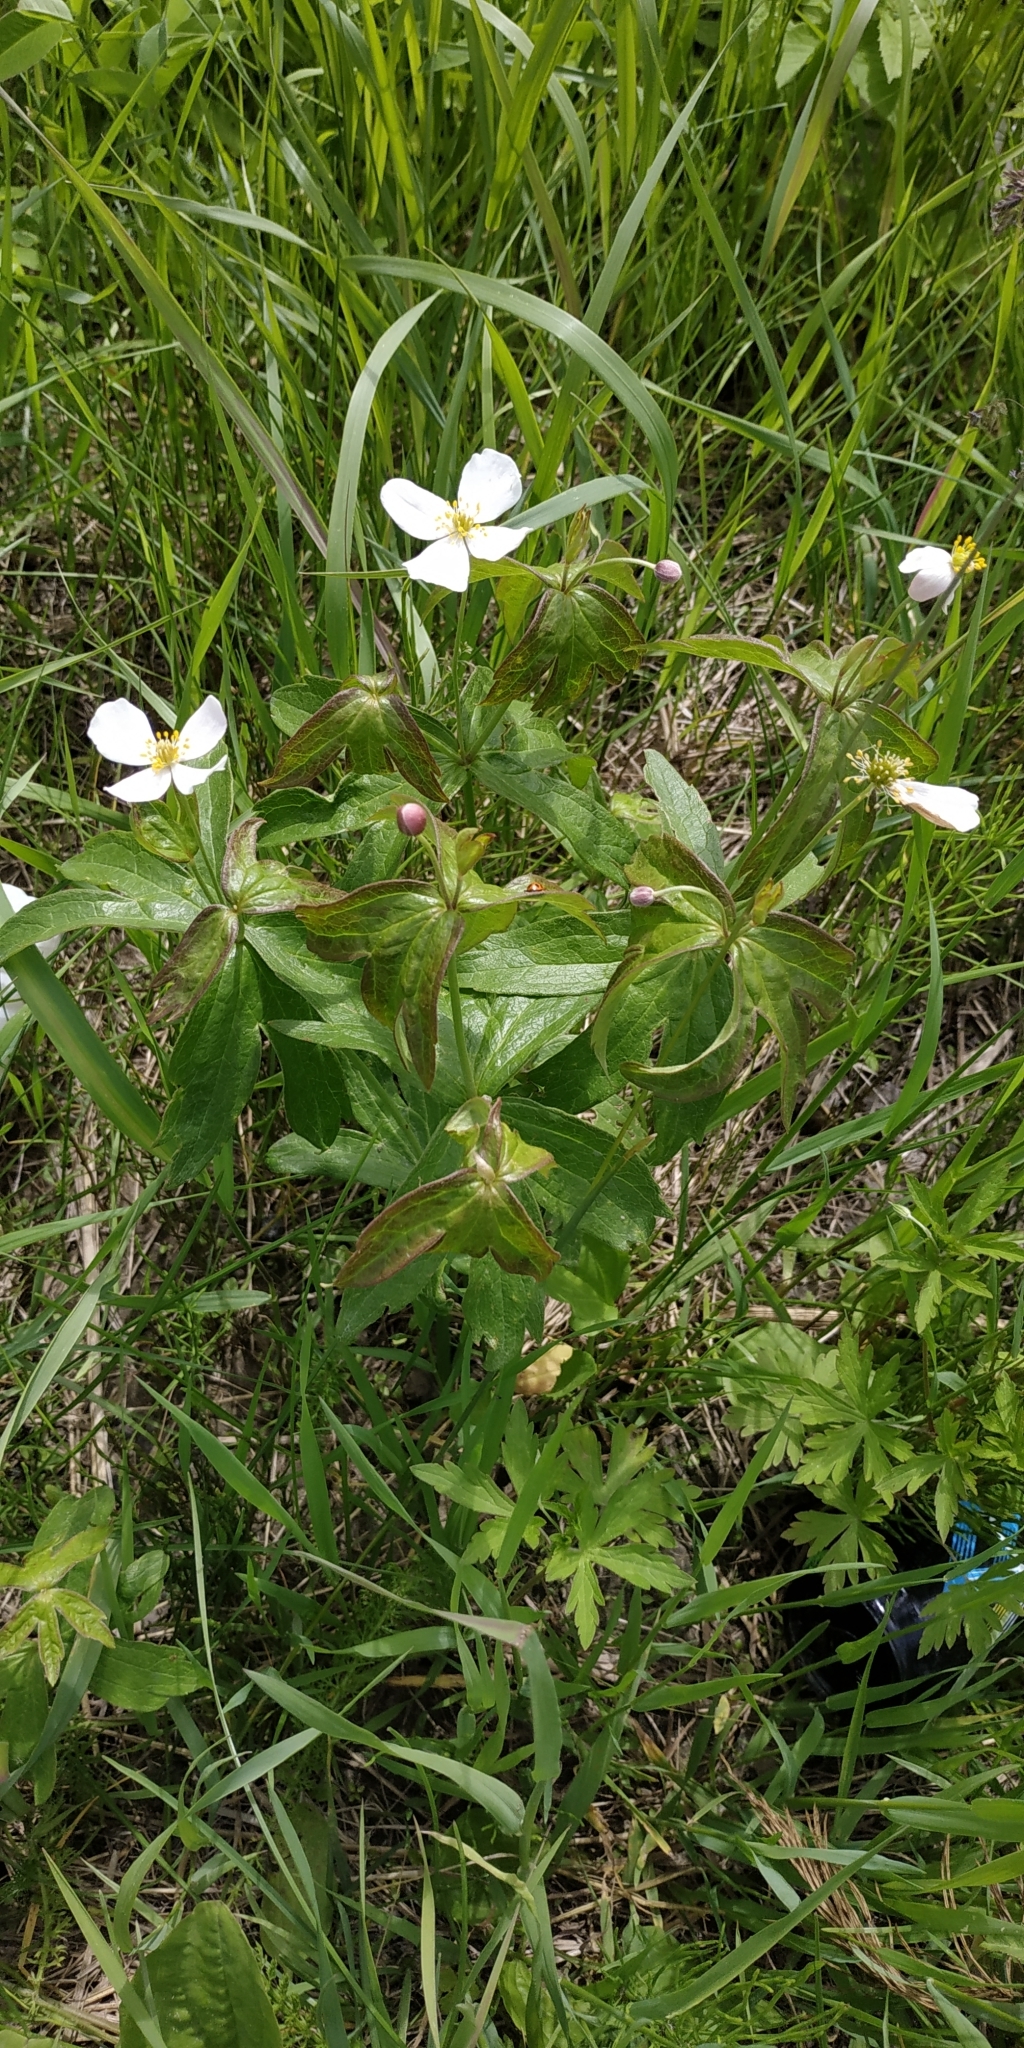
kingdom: Plantae
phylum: Tracheophyta
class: Magnoliopsida
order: Ranunculales
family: Ranunculaceae
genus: Anemonastrum
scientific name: Anemonastrum dichotomum
